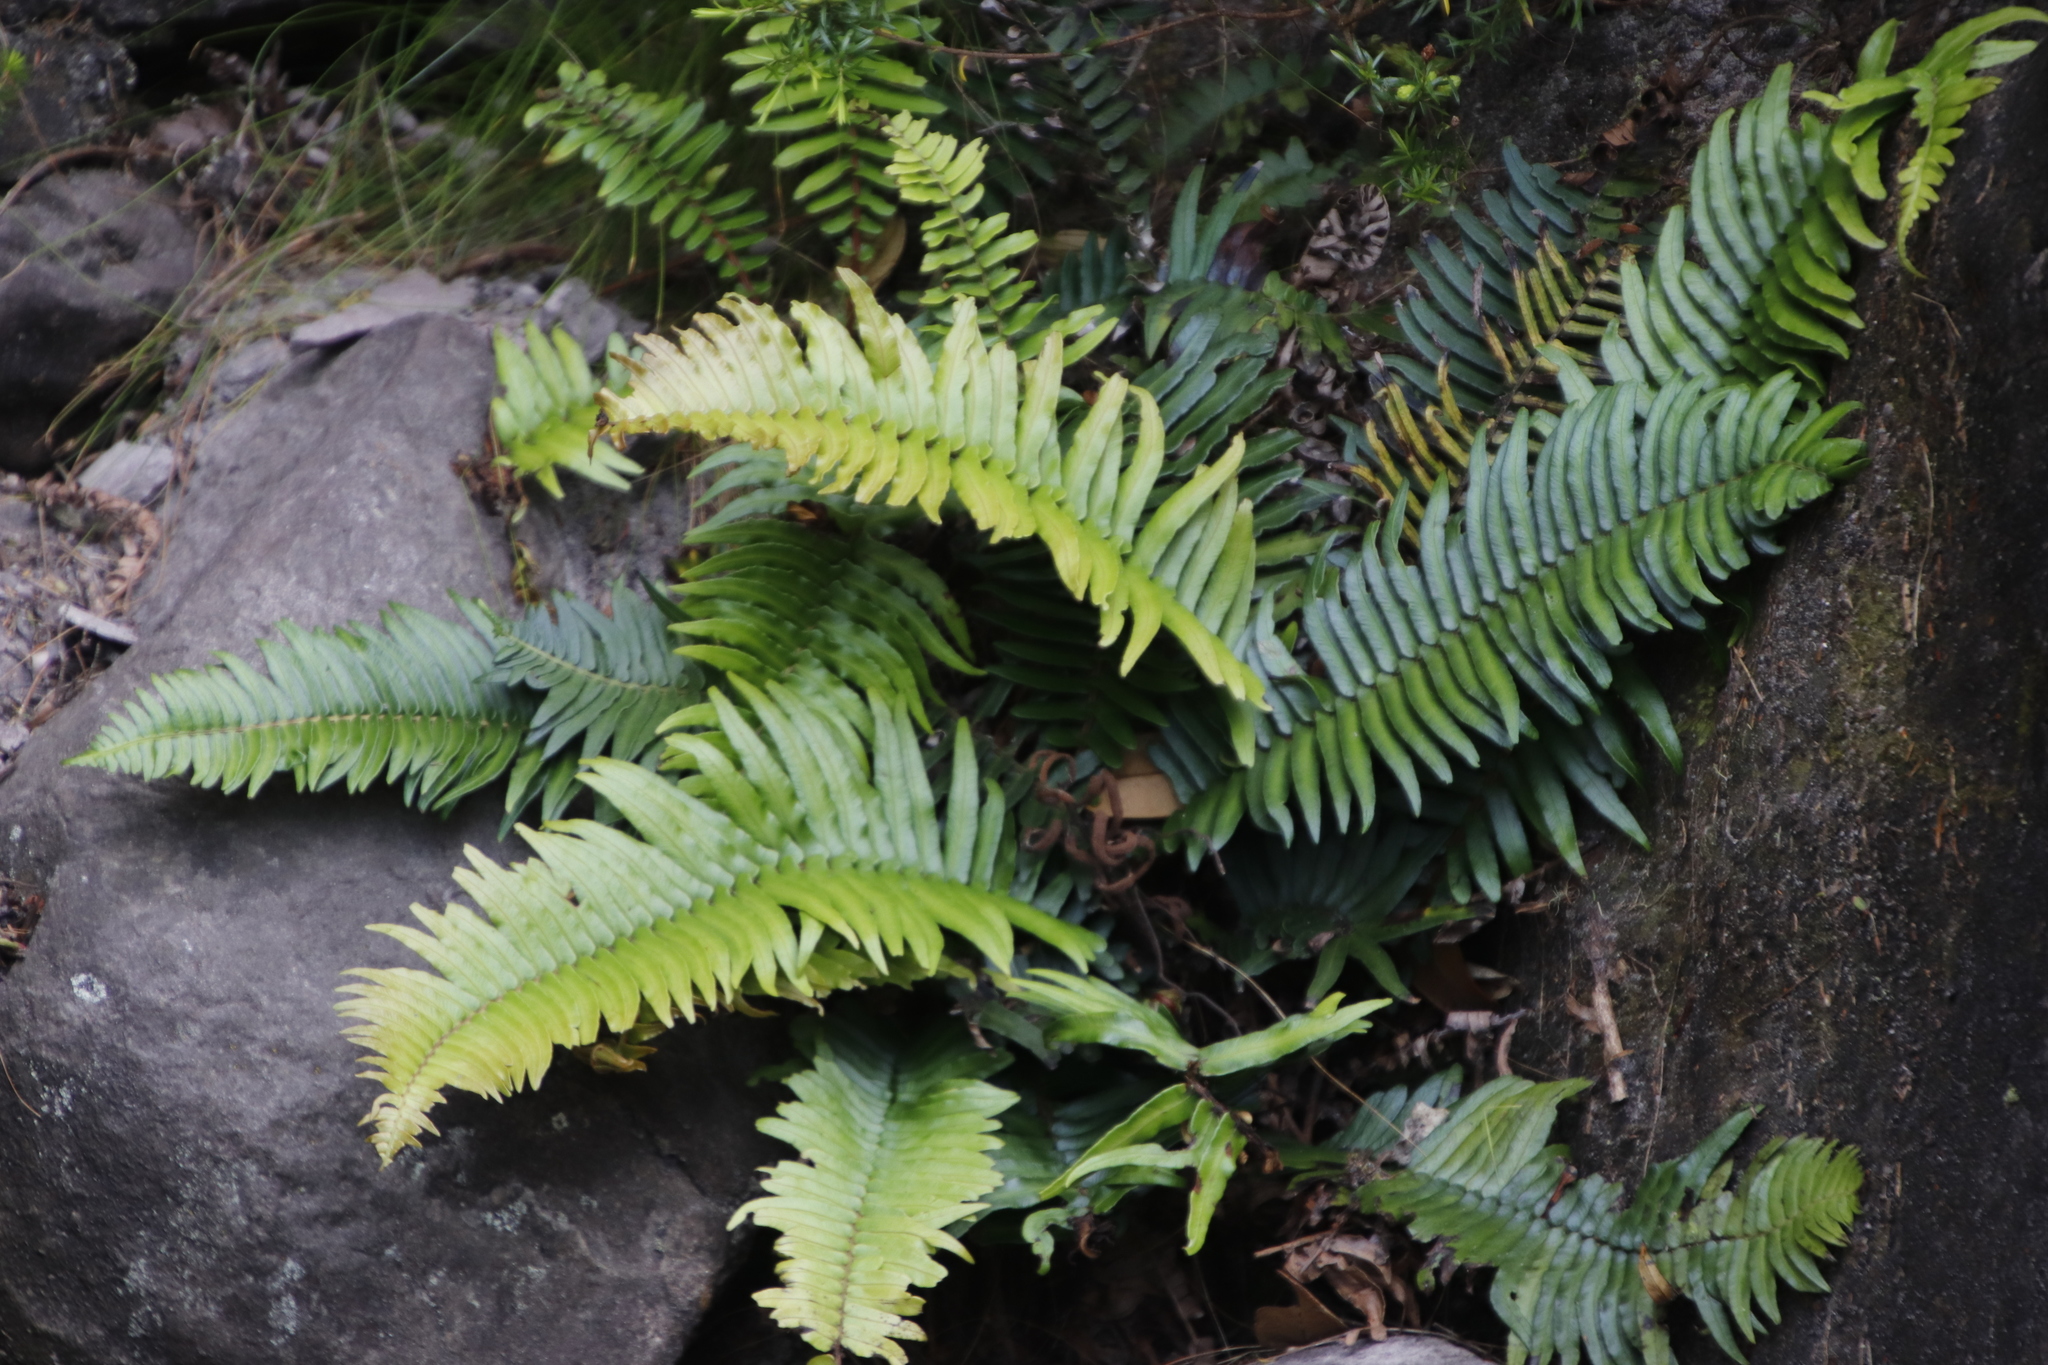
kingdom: Plantae
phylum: Tracheophyta
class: Polypodiopsida
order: Polypodiales
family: Blechnaceae
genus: Blechnum
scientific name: Blechnum punctulatum
